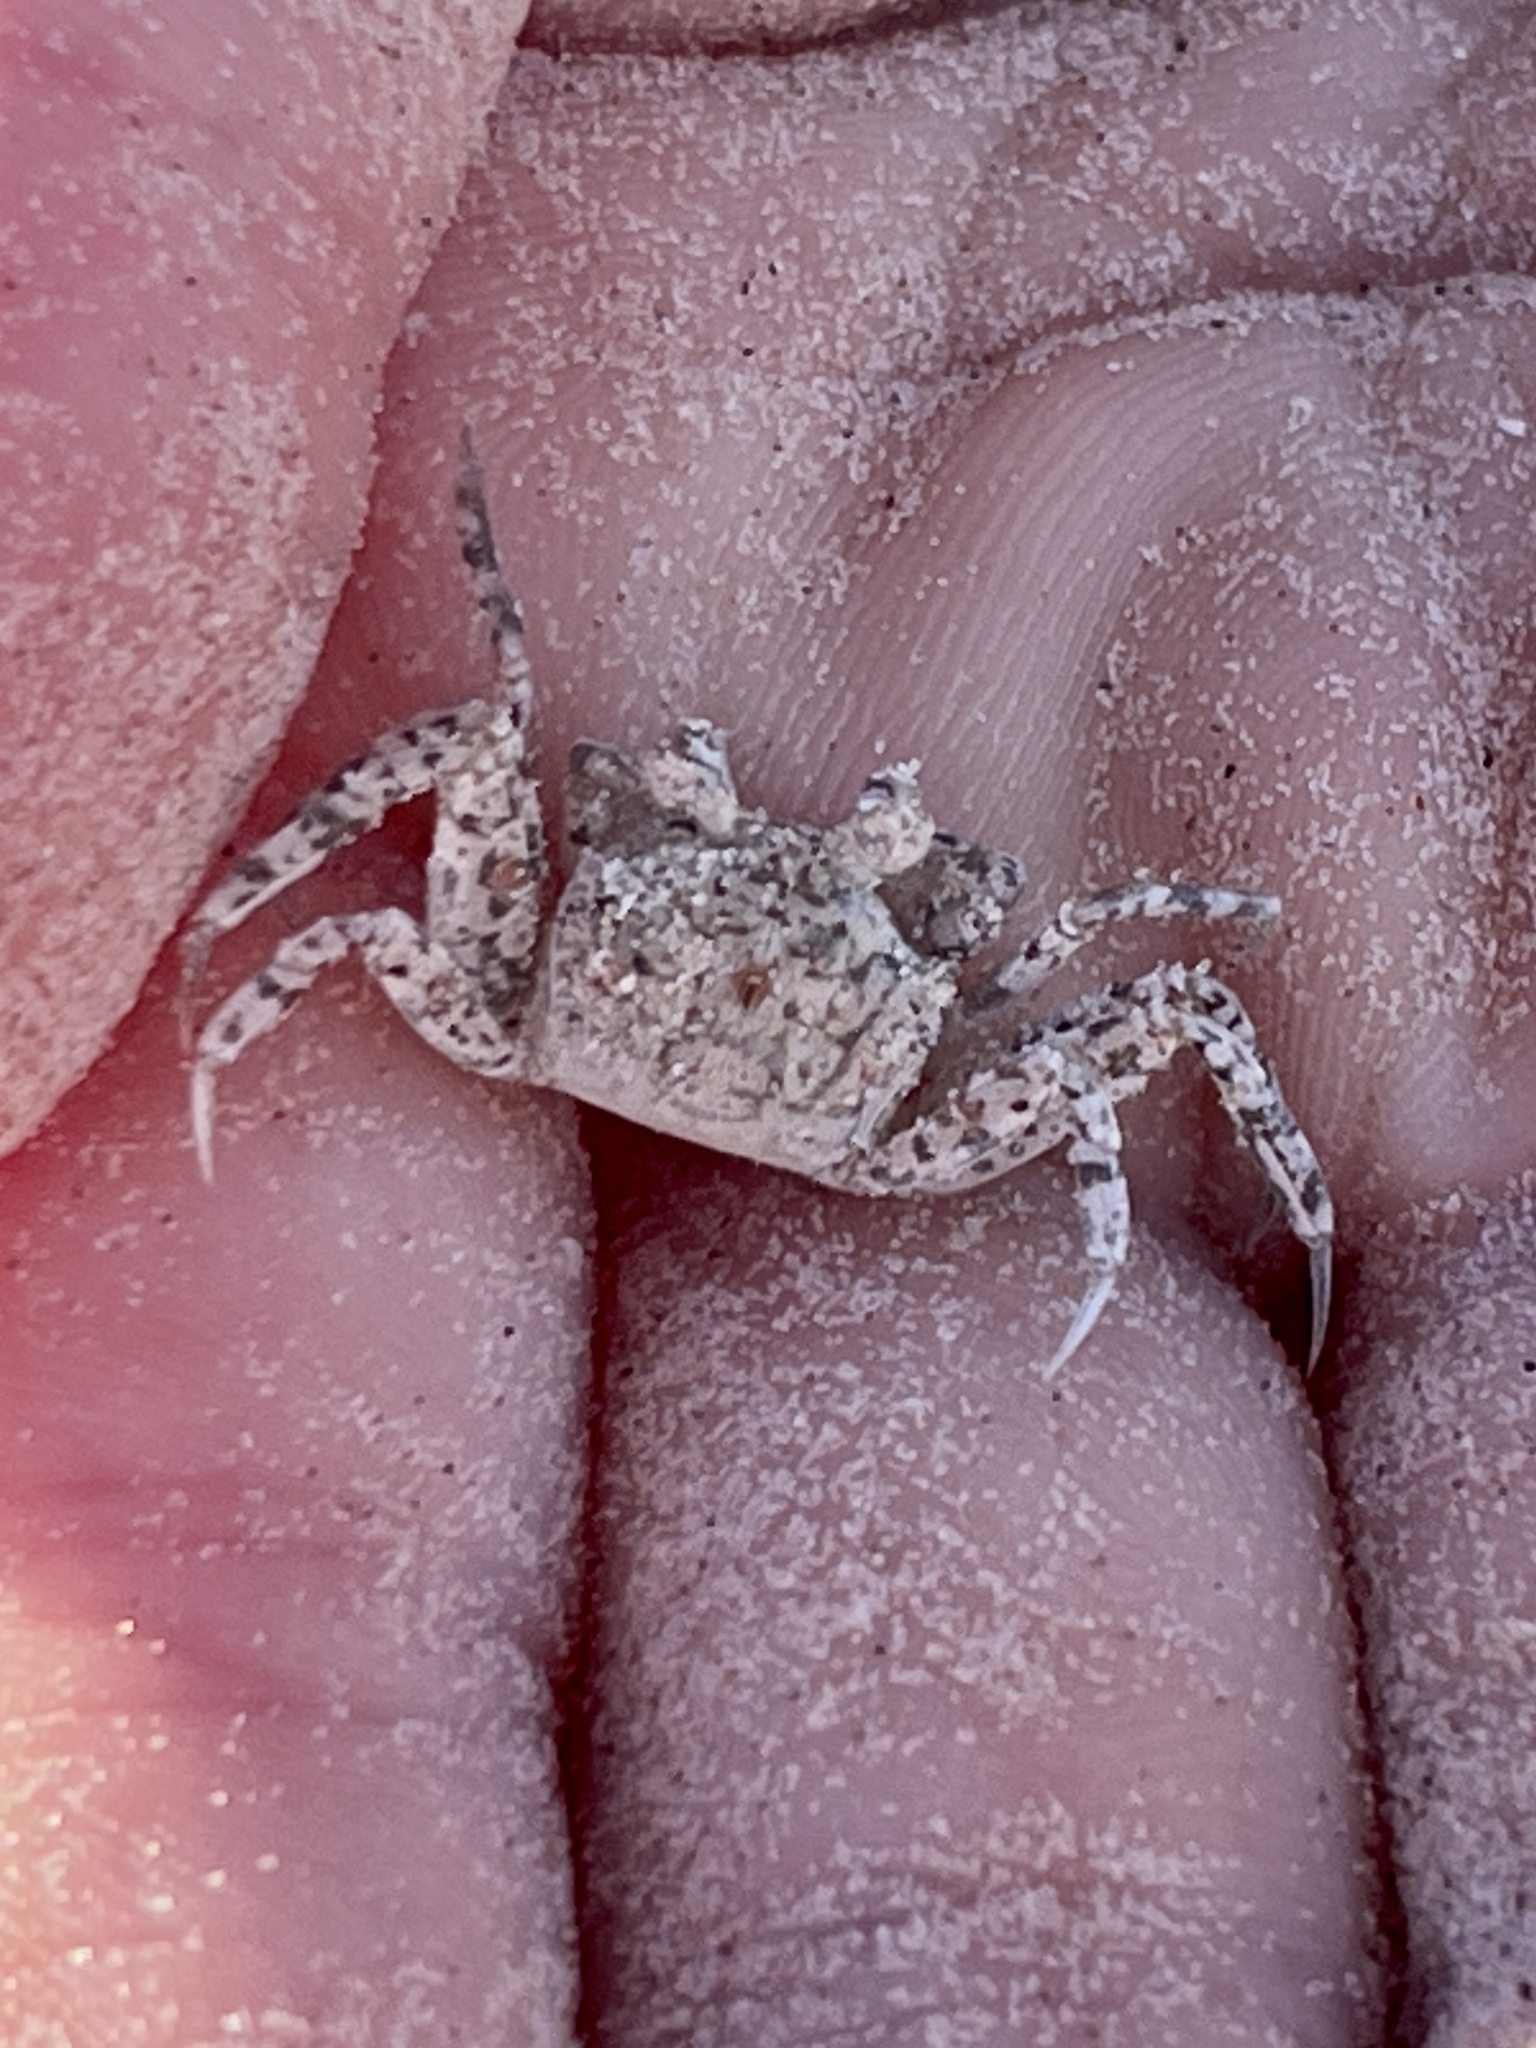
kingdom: Animalia
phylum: Arthropoda
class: Malacostraca
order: Decapoda
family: Ocypodidae
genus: Ocypode
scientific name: Ocypode quadrata
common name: Ghost crab
